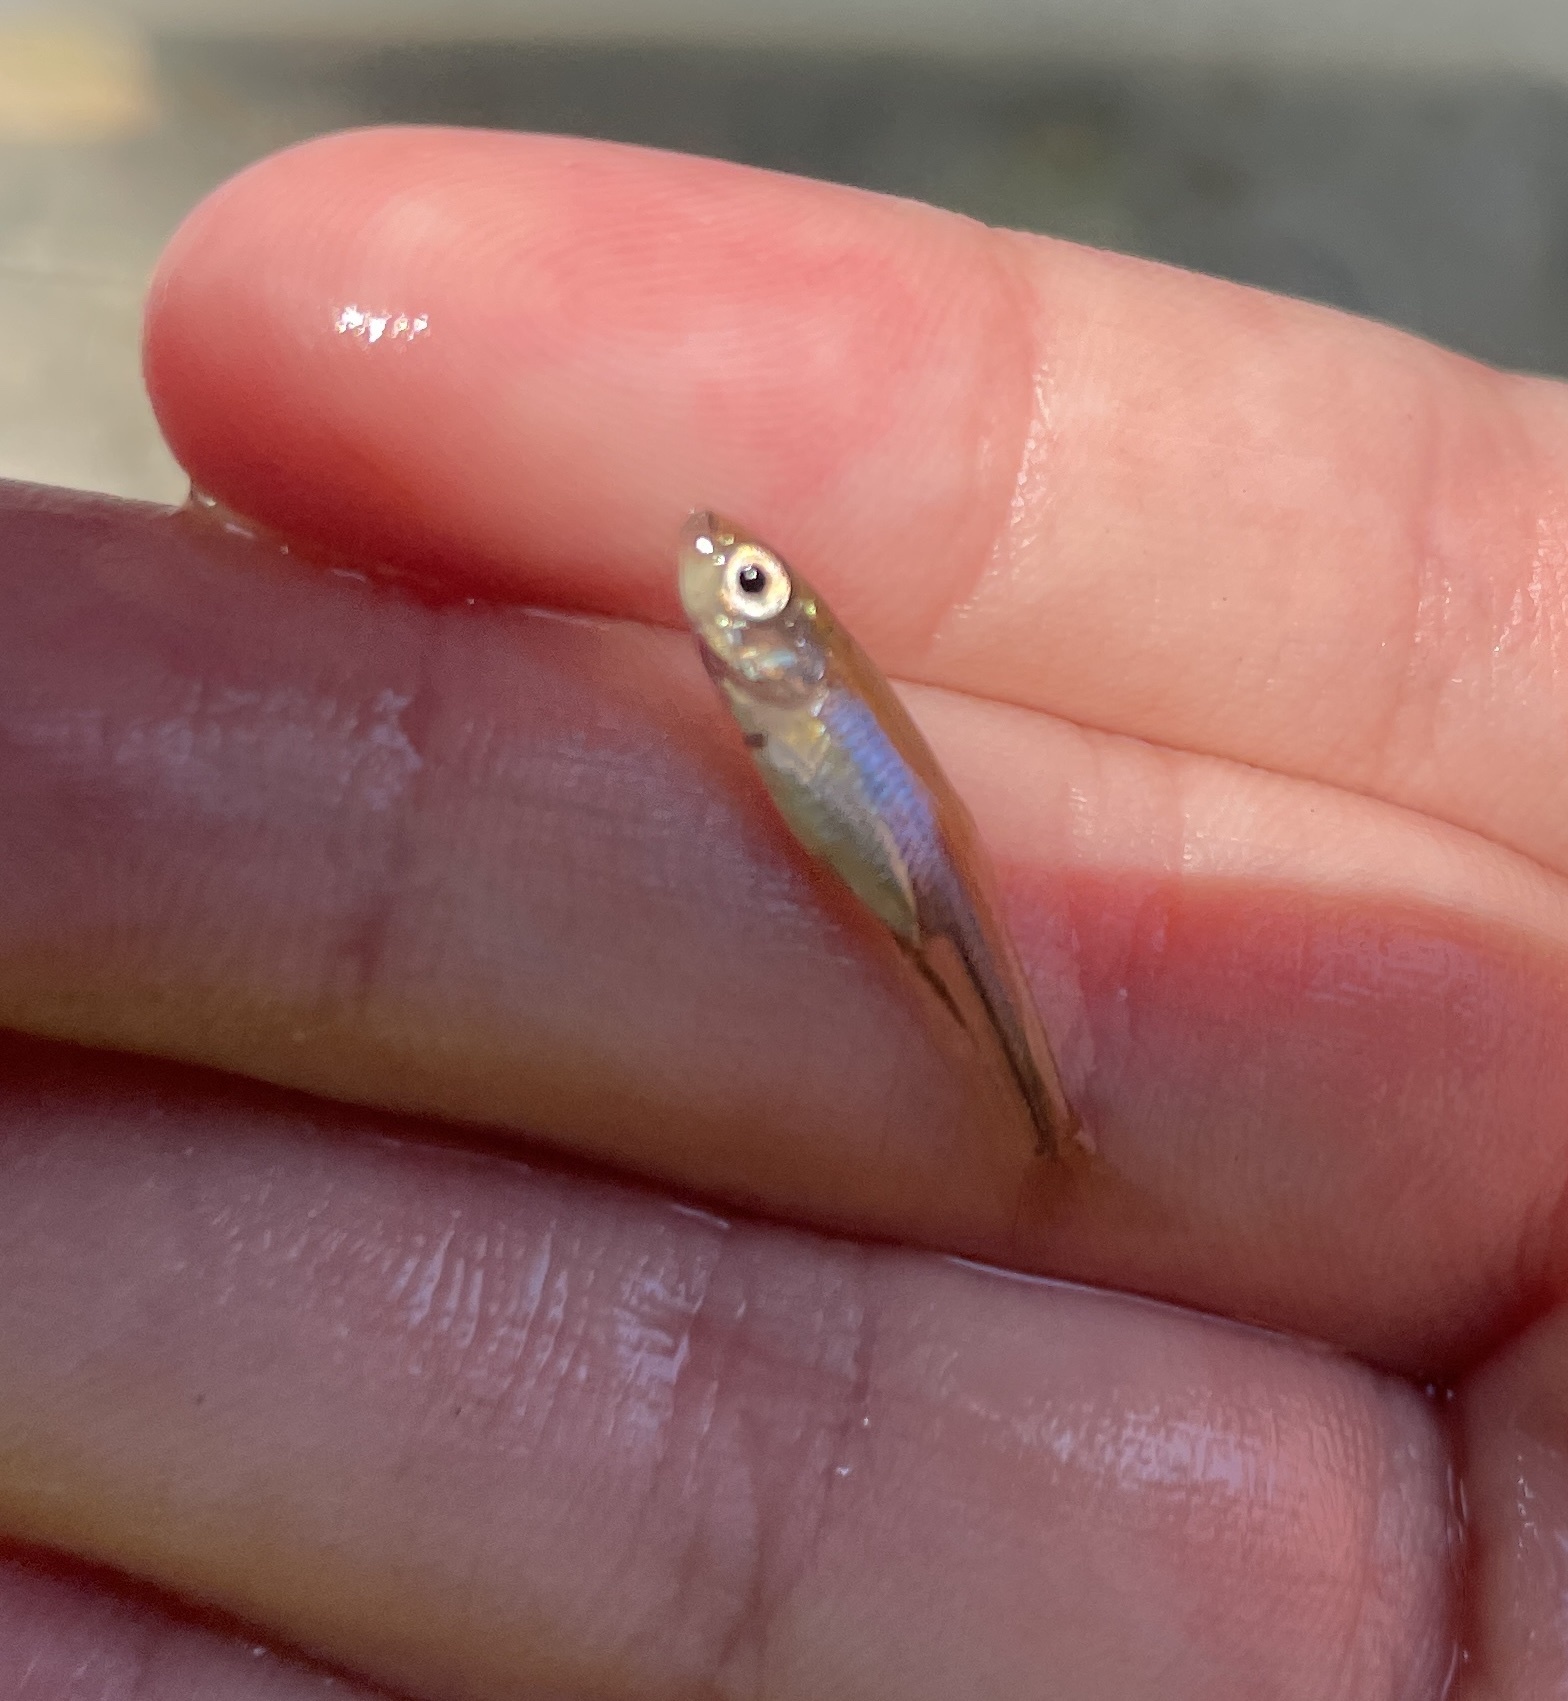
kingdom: Animalia
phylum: Chordata
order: Cypriniformes
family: Leuciscidae
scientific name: Leuciscidae
